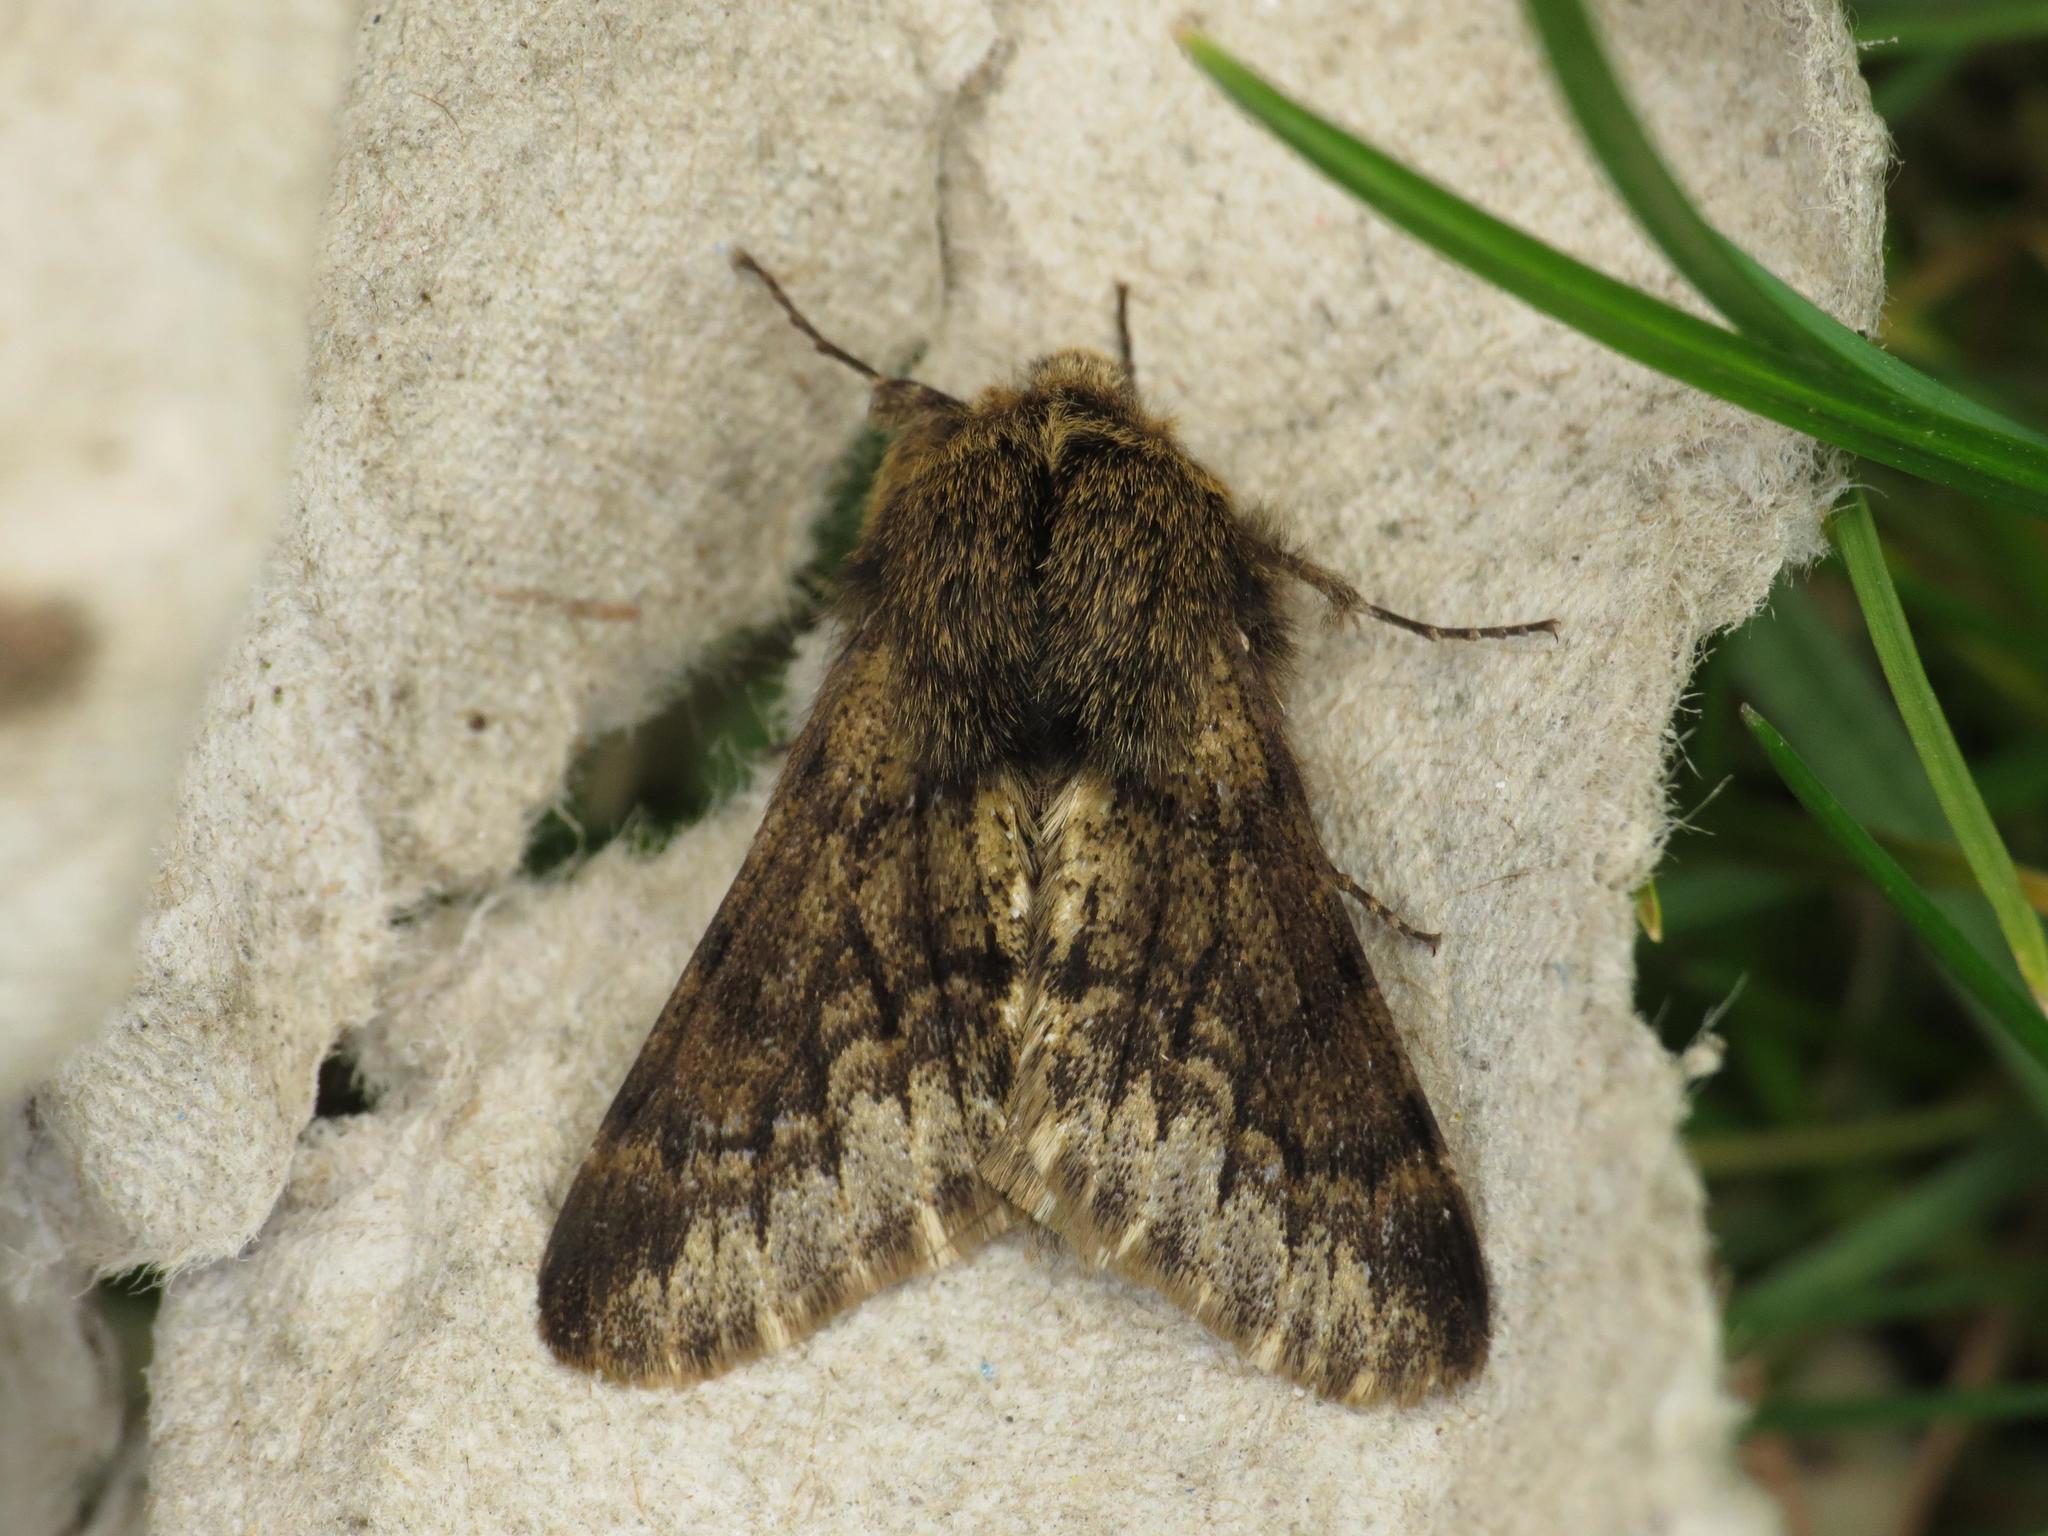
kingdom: Animalia
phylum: Arthropoda
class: Insecta
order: Lepidoptera
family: Geometridae
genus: Apocheima
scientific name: Apocheima hispidaria
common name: Small brindled beauty
